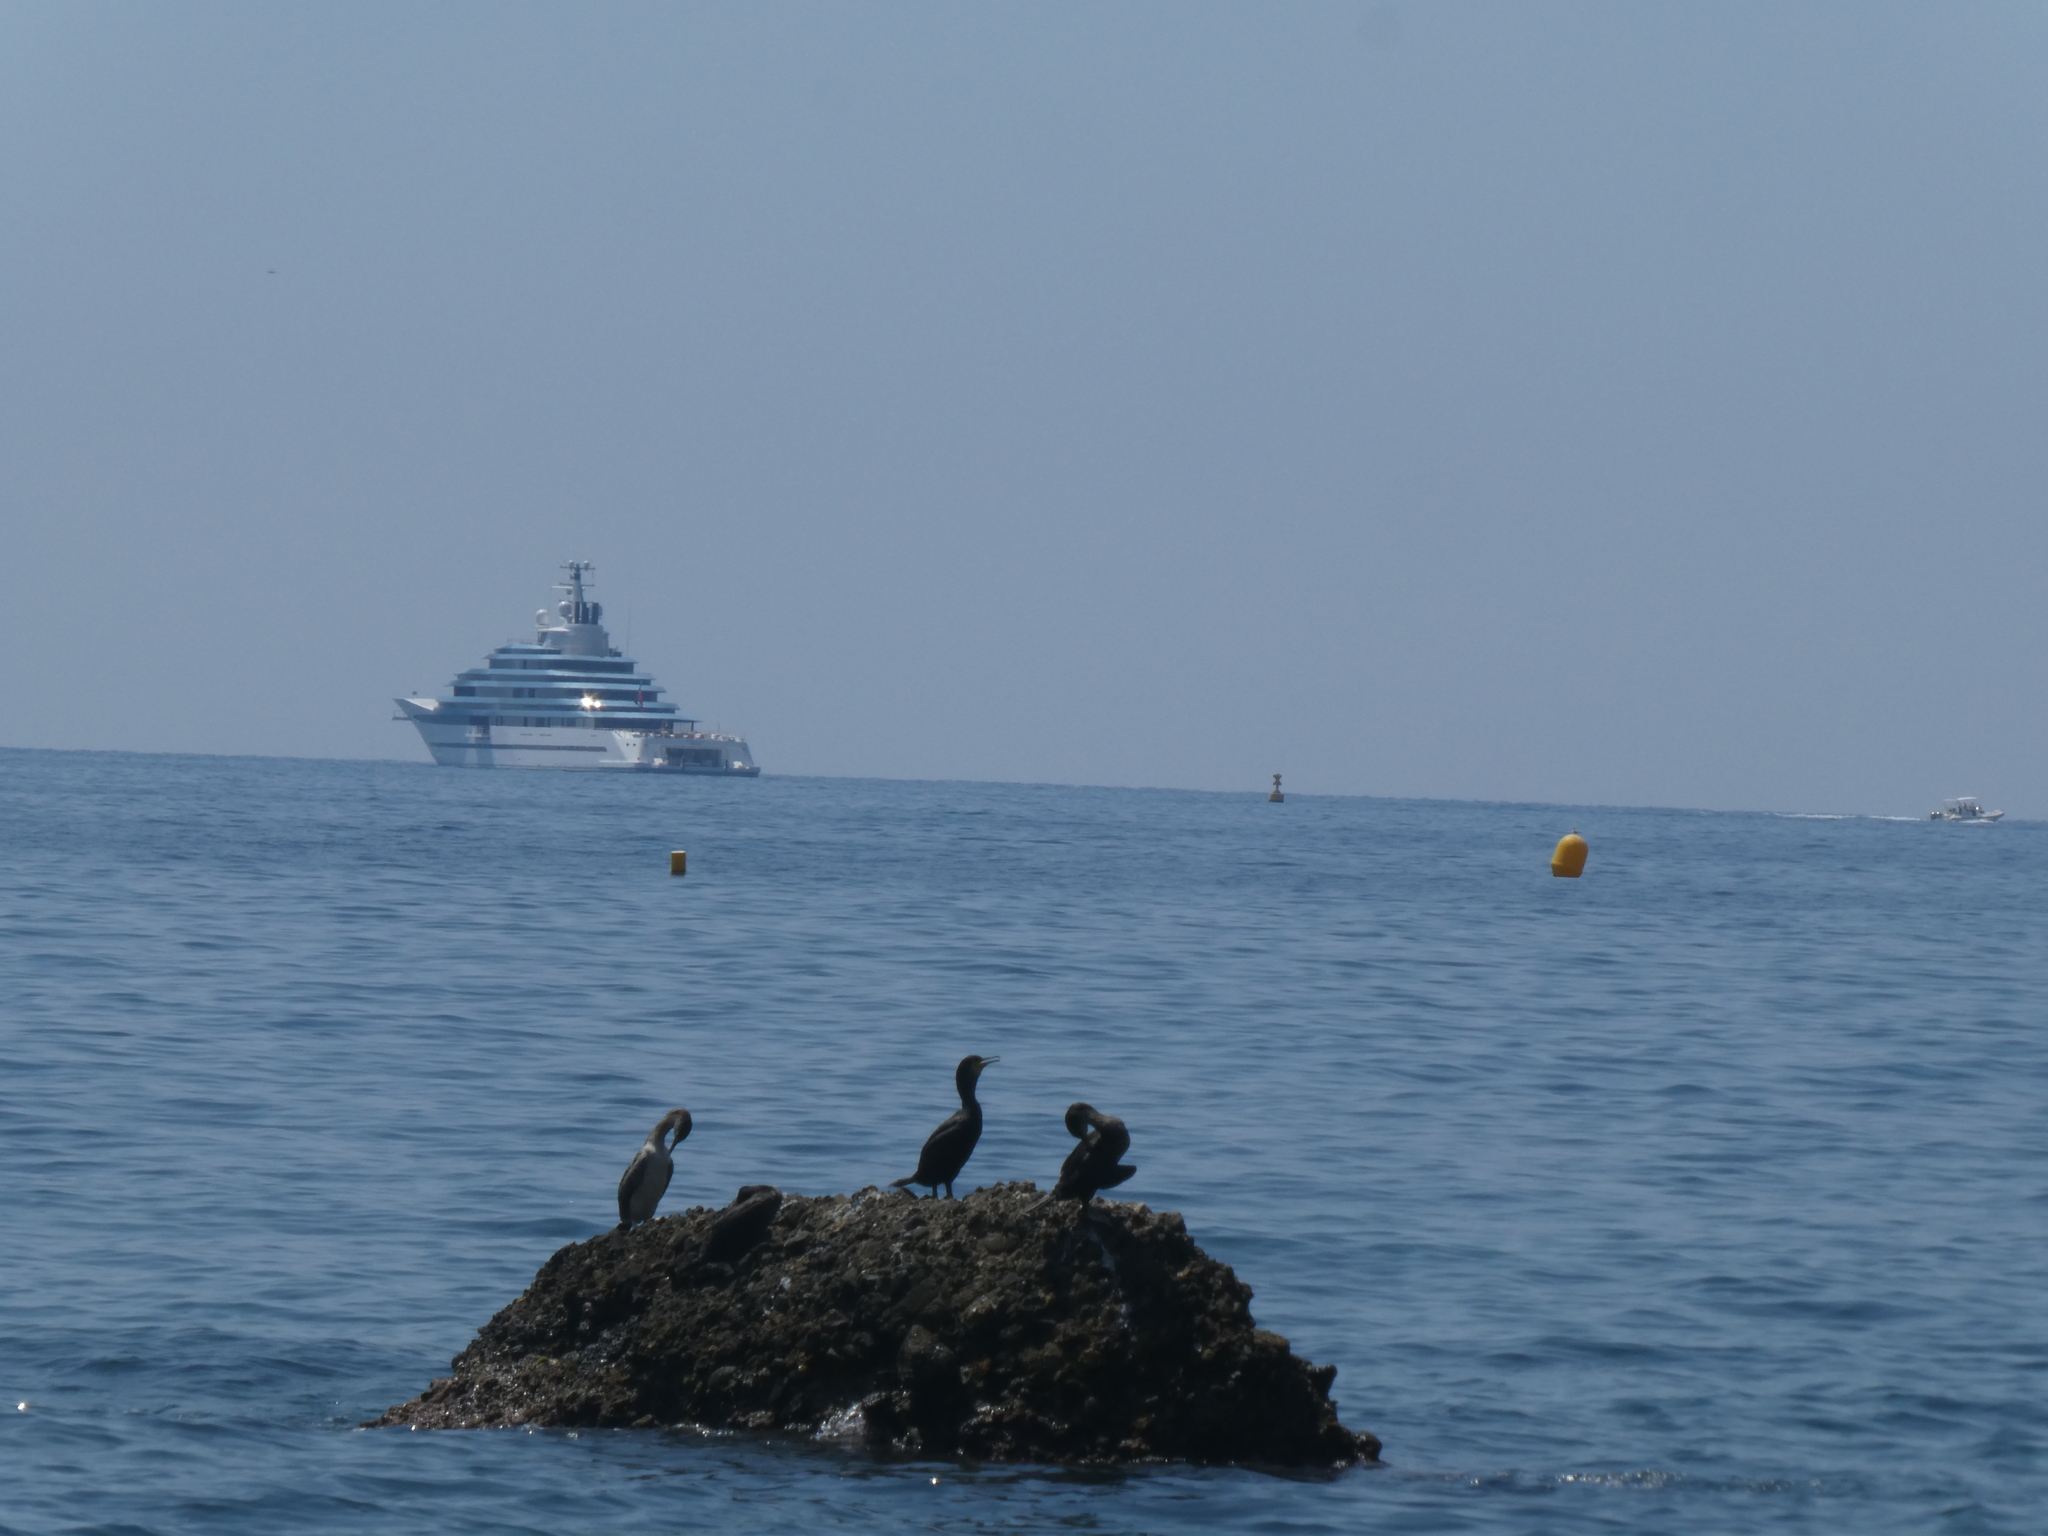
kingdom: Animalia
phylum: Chordata
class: Aves
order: Suliformes
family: Phalacrocoracidae
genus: Phalacrocorax
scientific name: Phalacrocorax aristotelis
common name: European shag
